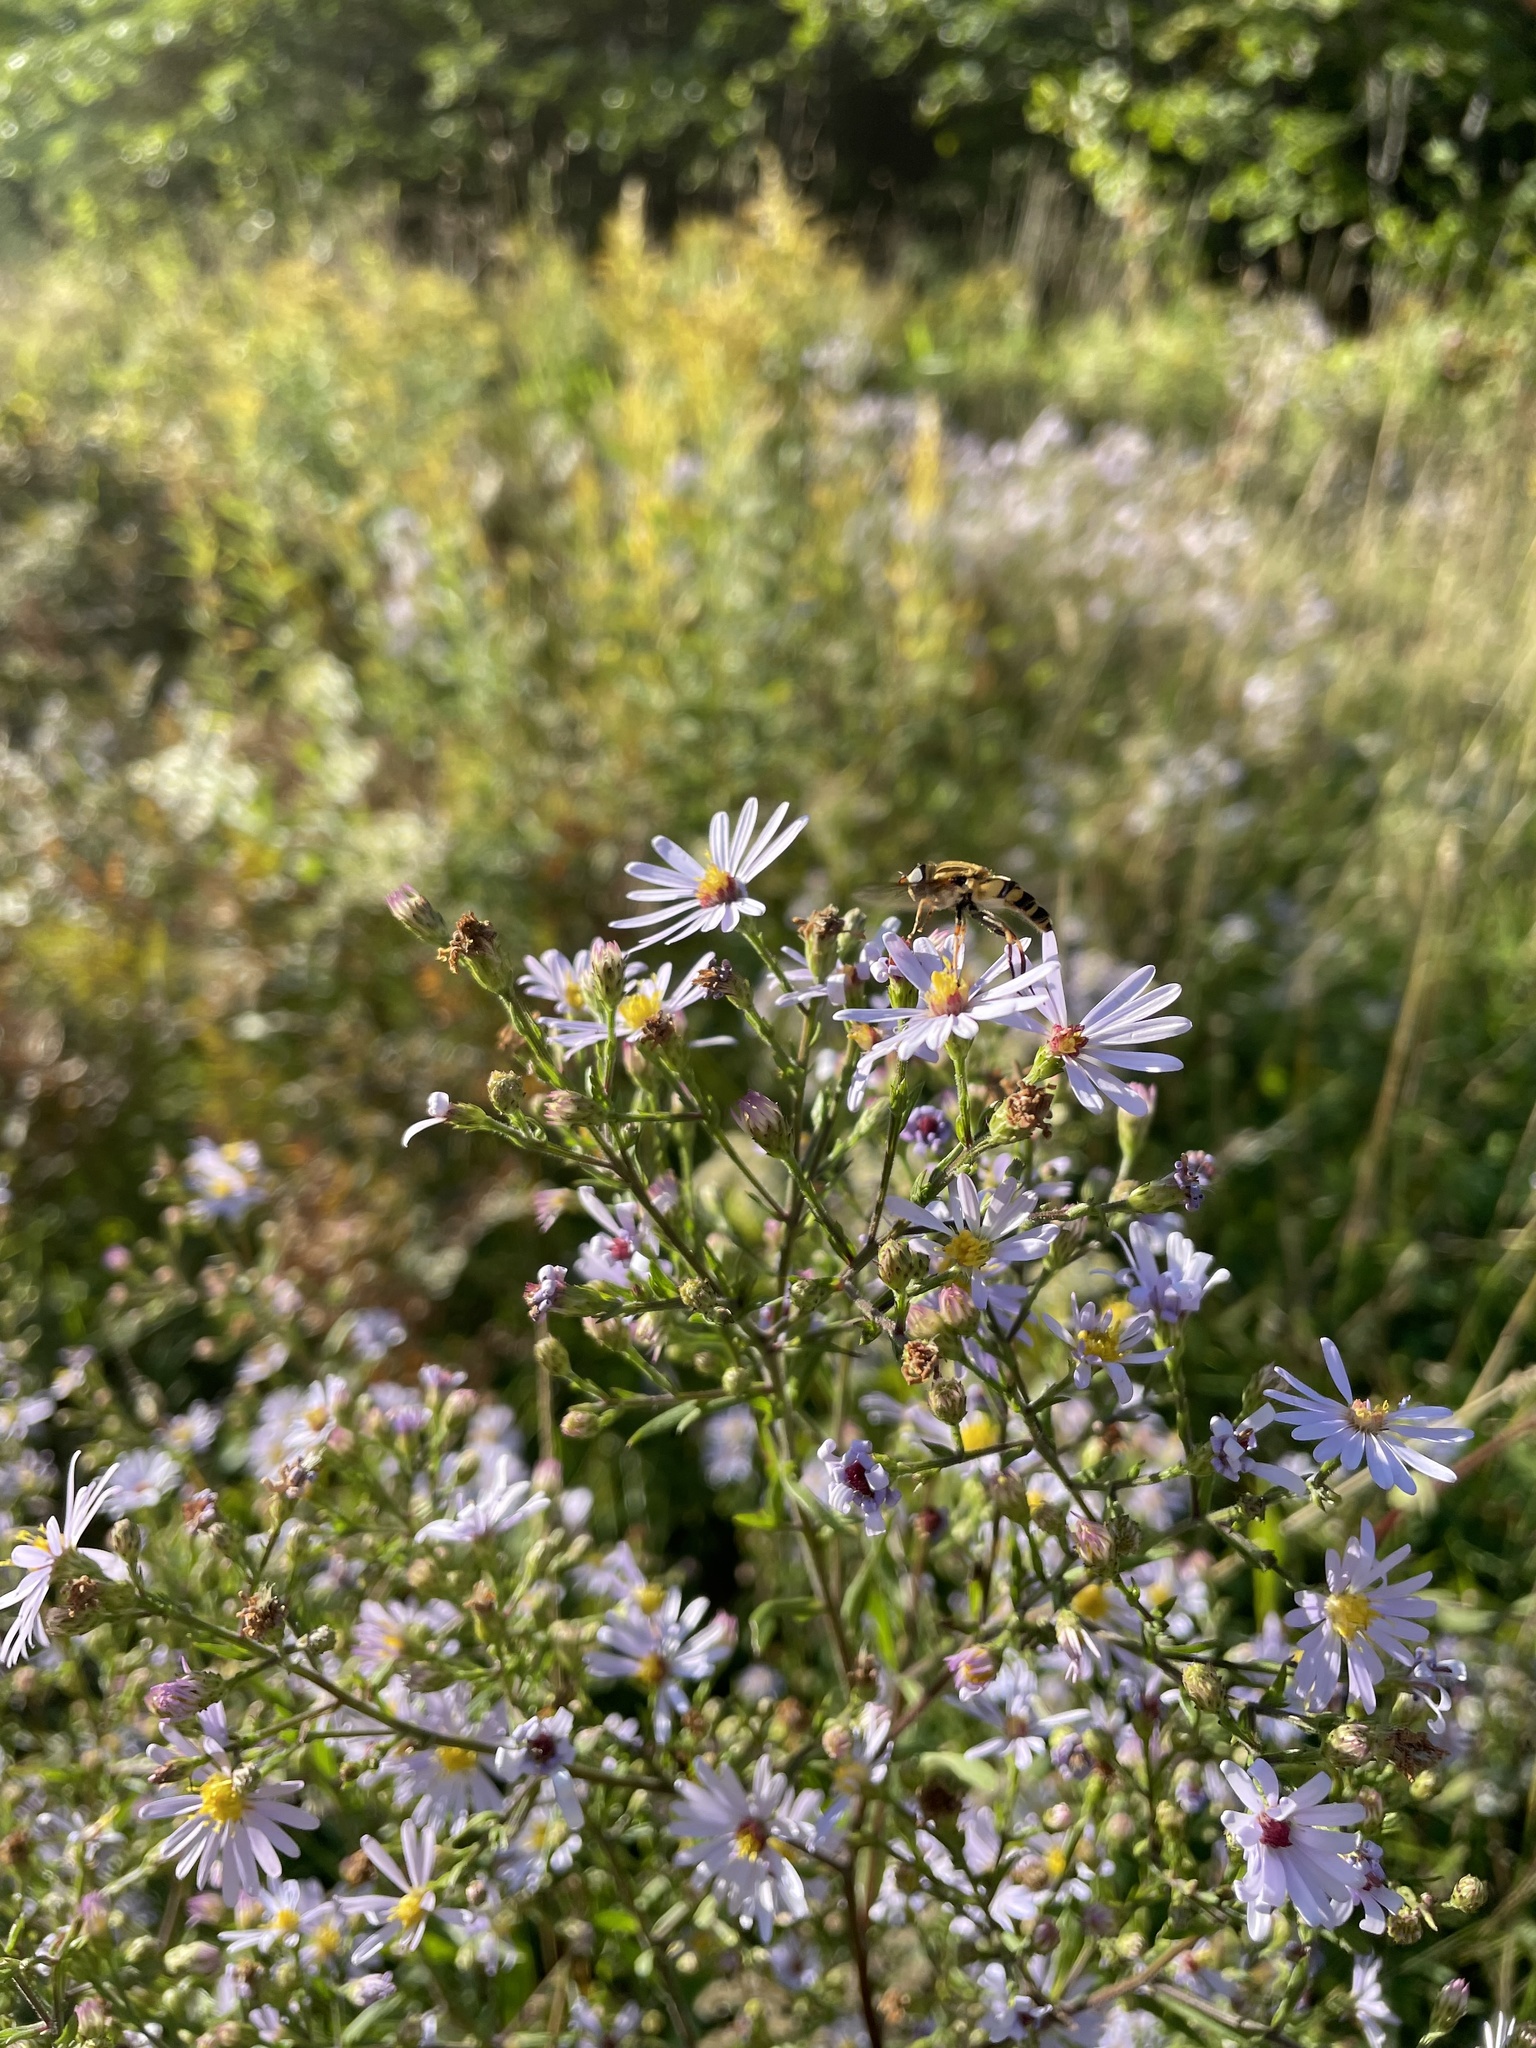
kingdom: Animalia
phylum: Arthropoda
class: Insecta
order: Diptera
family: Syrphidae
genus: Helophilus
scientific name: Helophilus fasciatus
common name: Narrow-headed marsh fly
